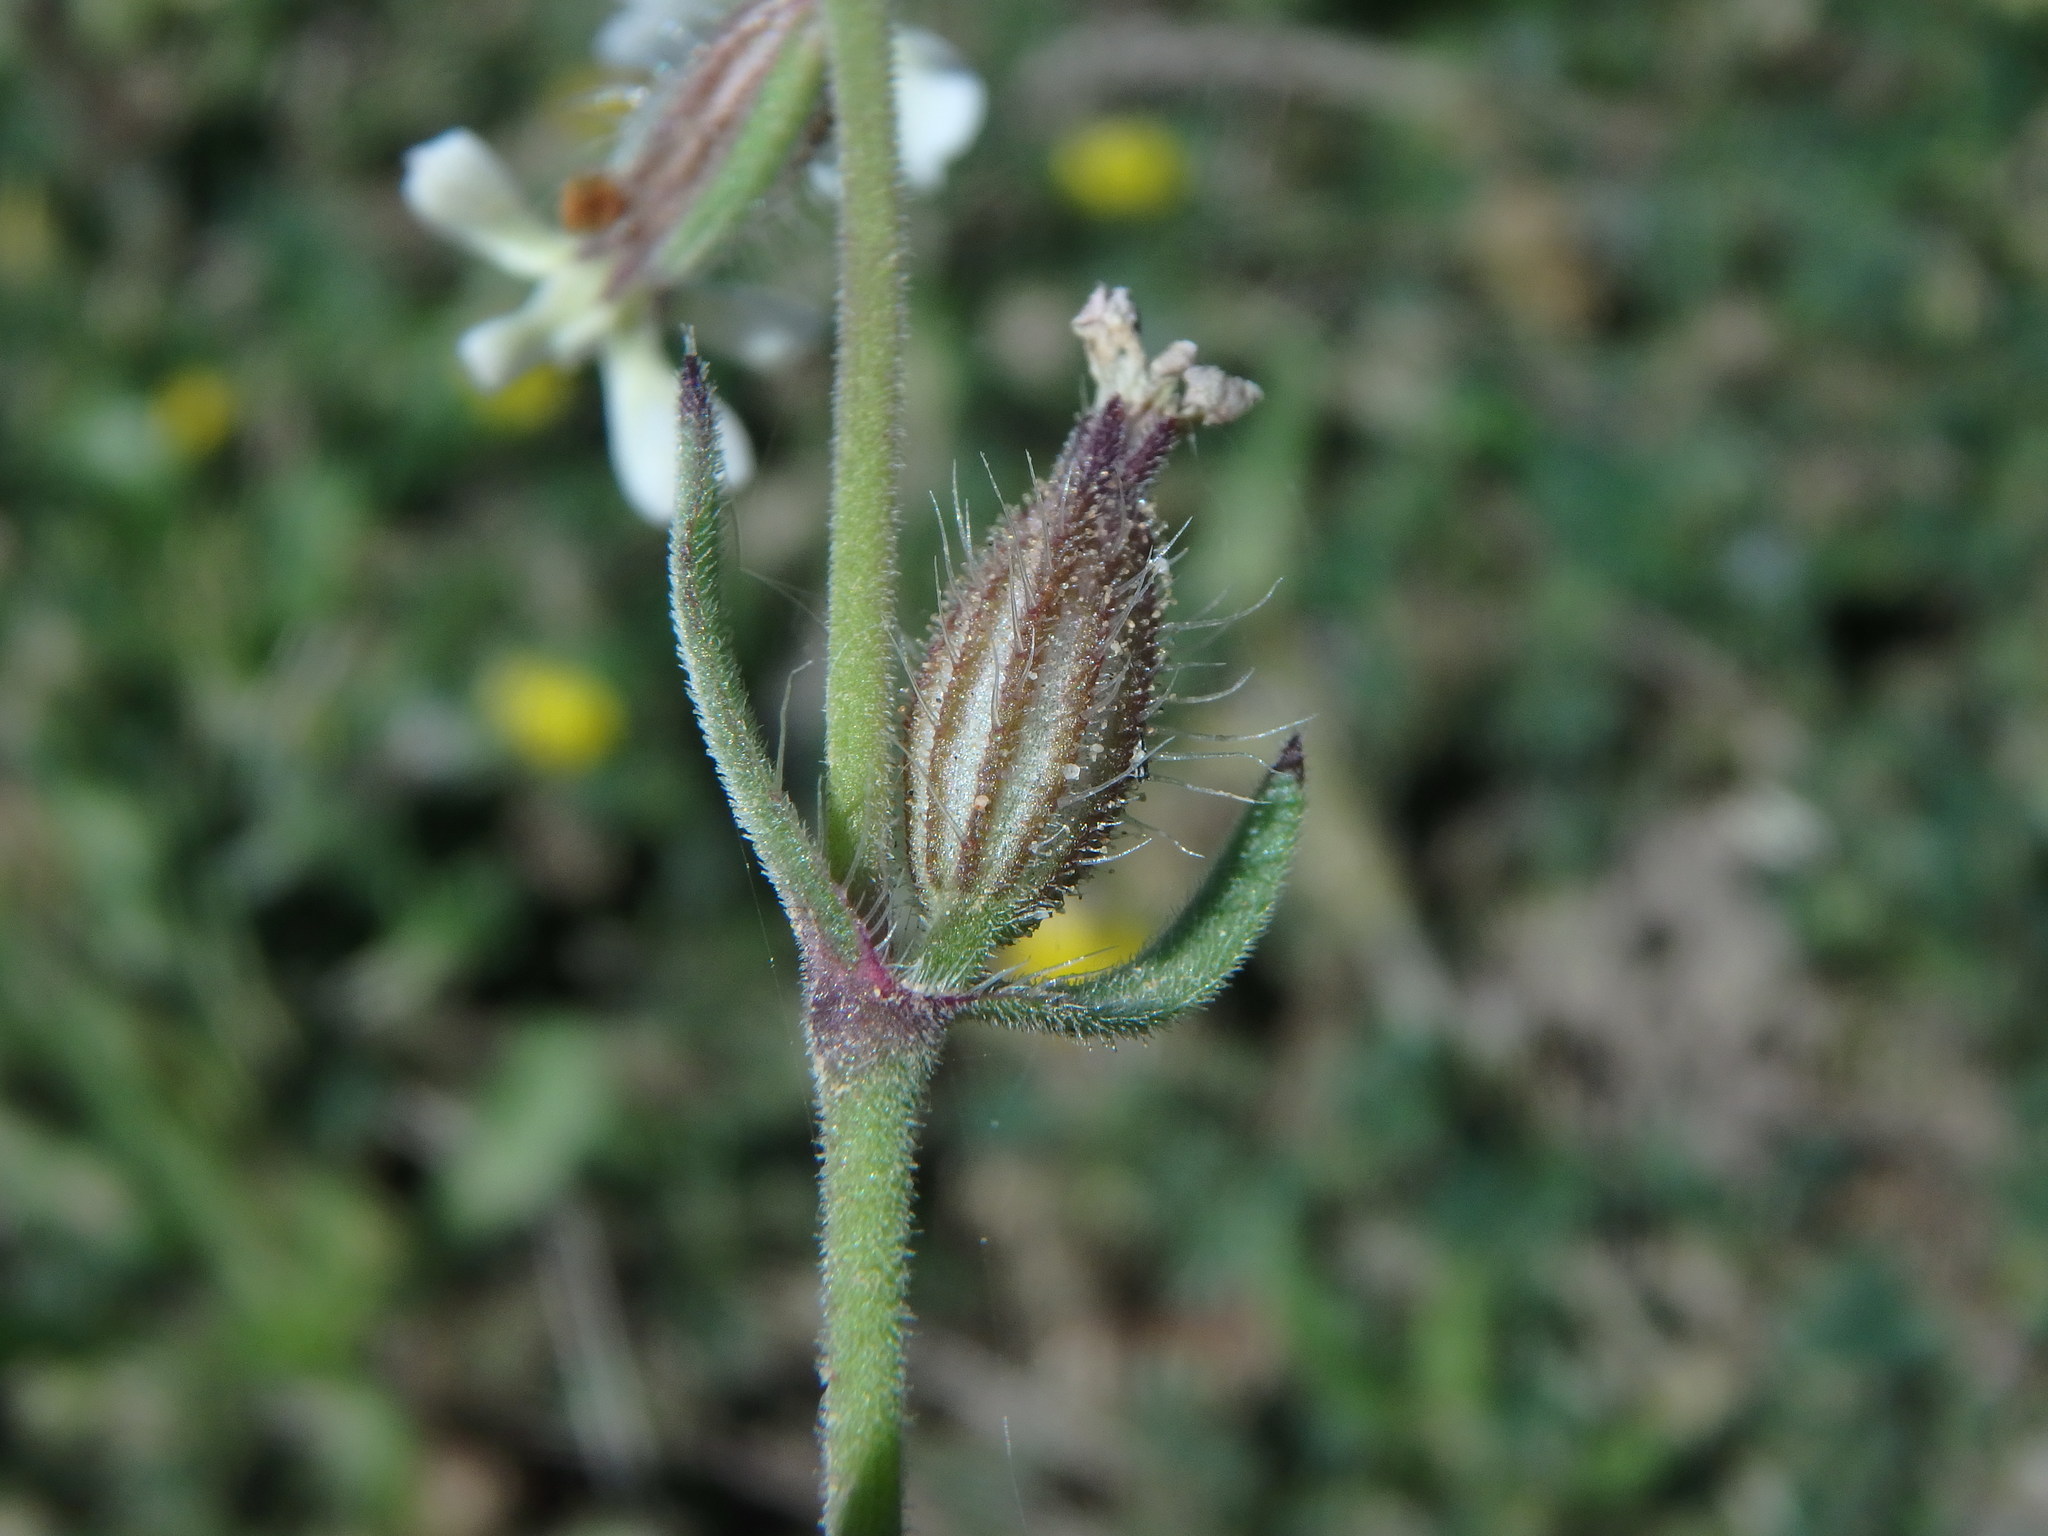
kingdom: Plantae
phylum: Tracheophyta
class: Magnoliopsida
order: Caryophyllales
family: Caryophyllaceae
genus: Silene
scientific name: Silene gallica
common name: Small-flowered catchfly
